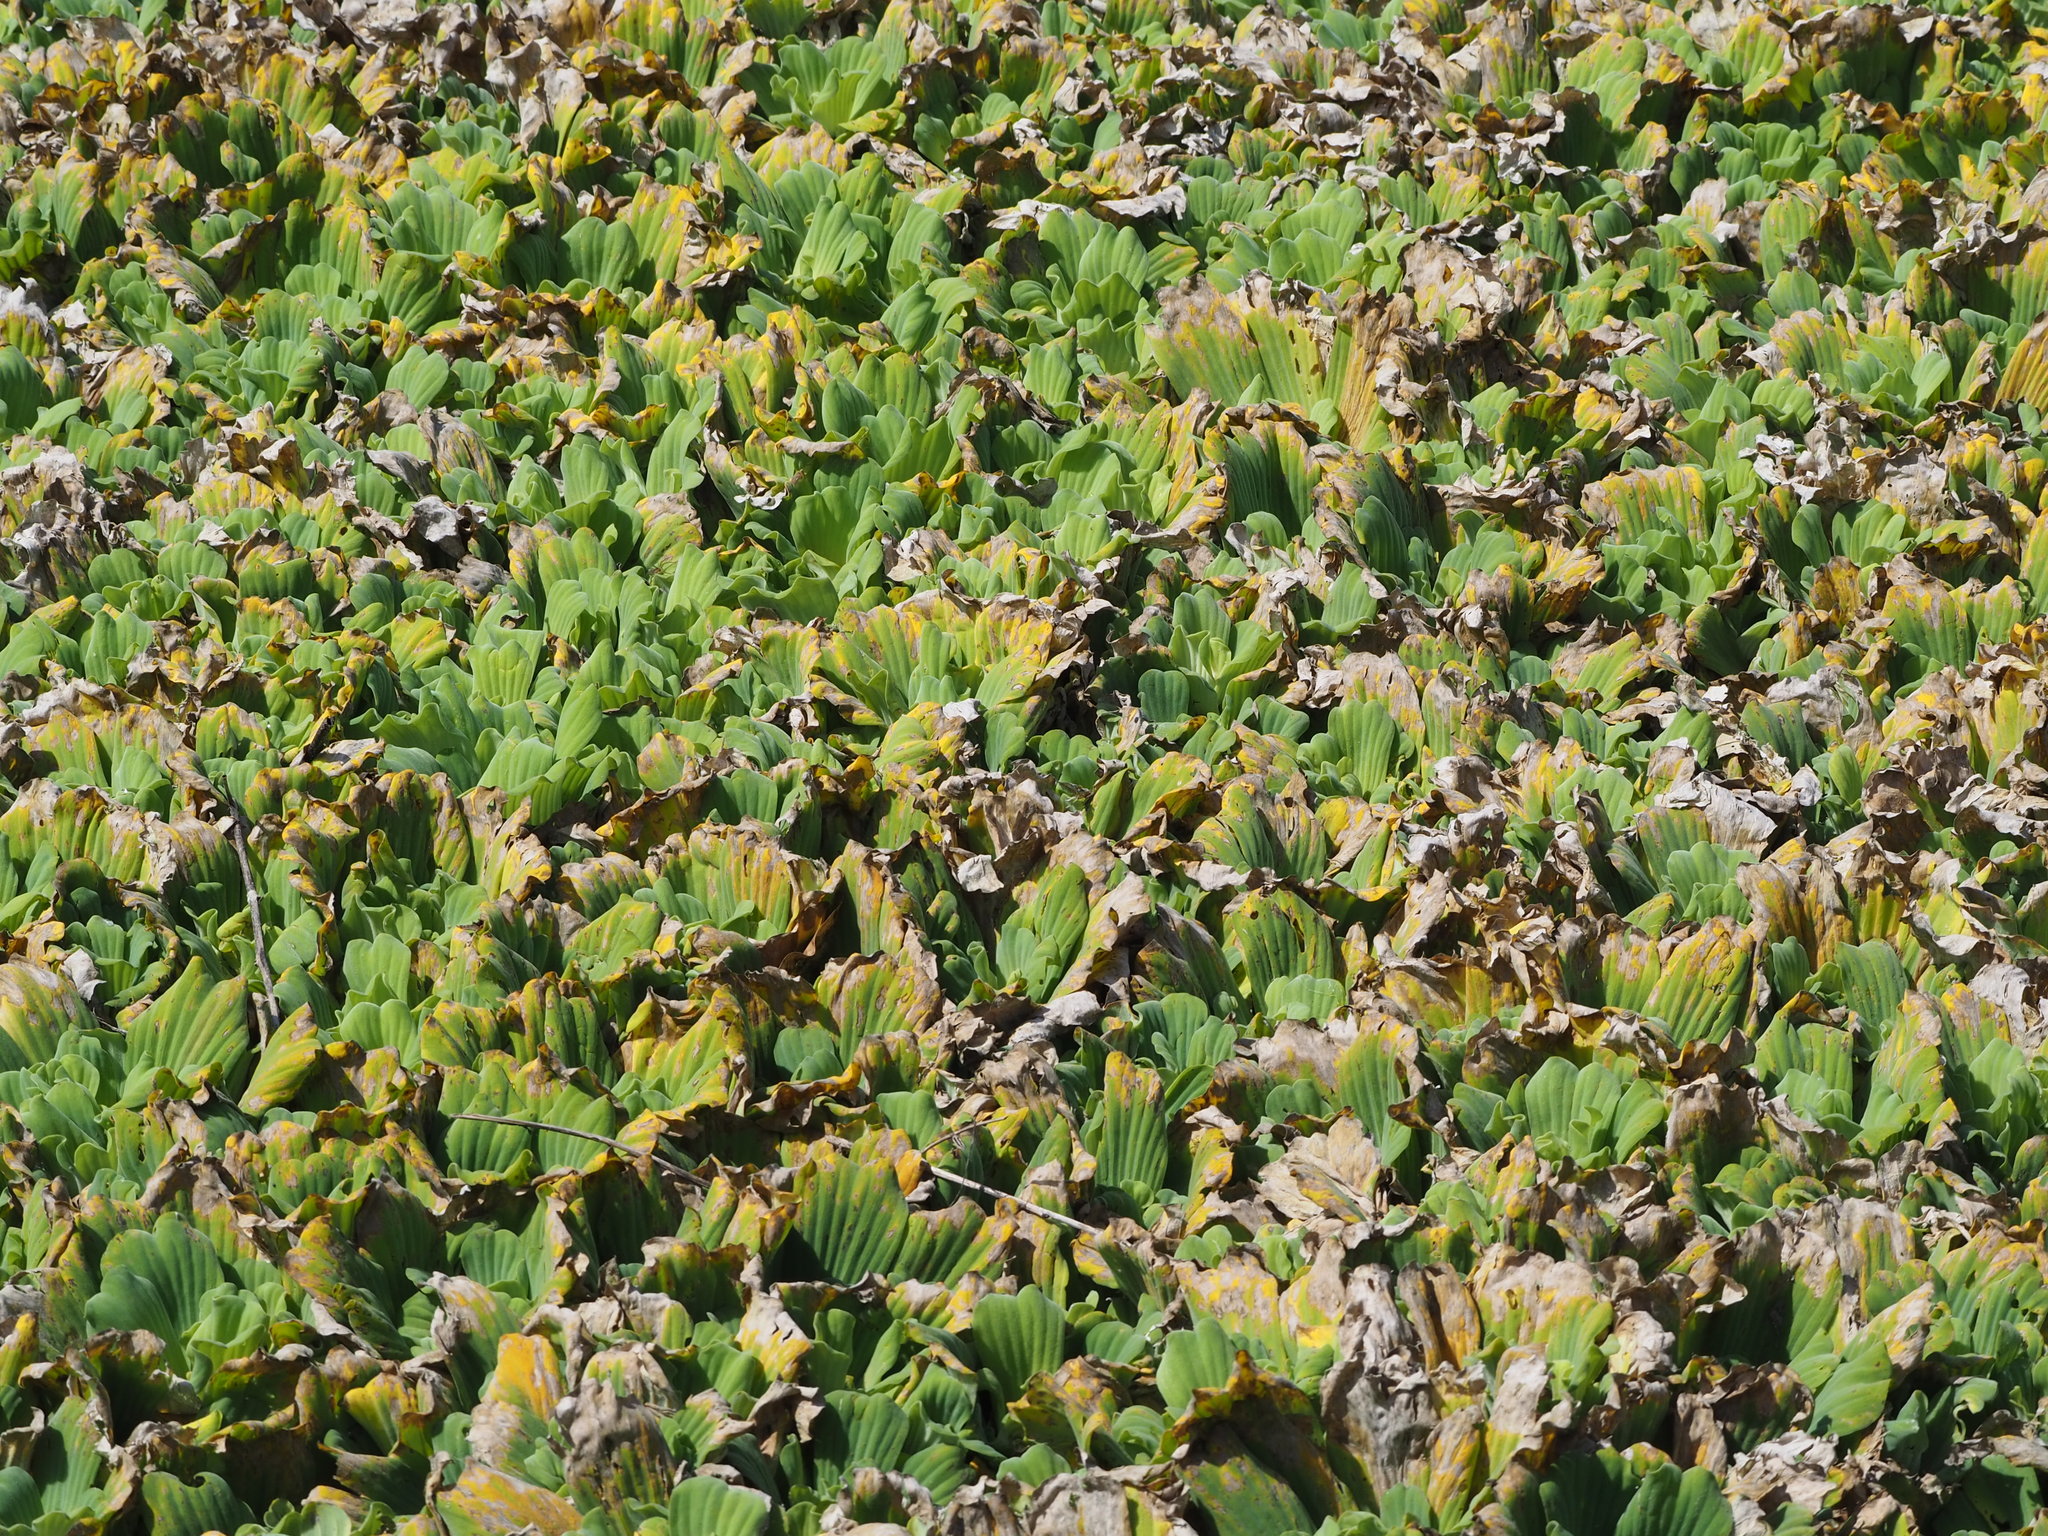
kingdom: Plantae
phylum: Tracheophyta
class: Liliopsida
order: Alismatales
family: Araceae
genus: Pistia
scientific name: Pistia stratiotes
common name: Water lettuce
